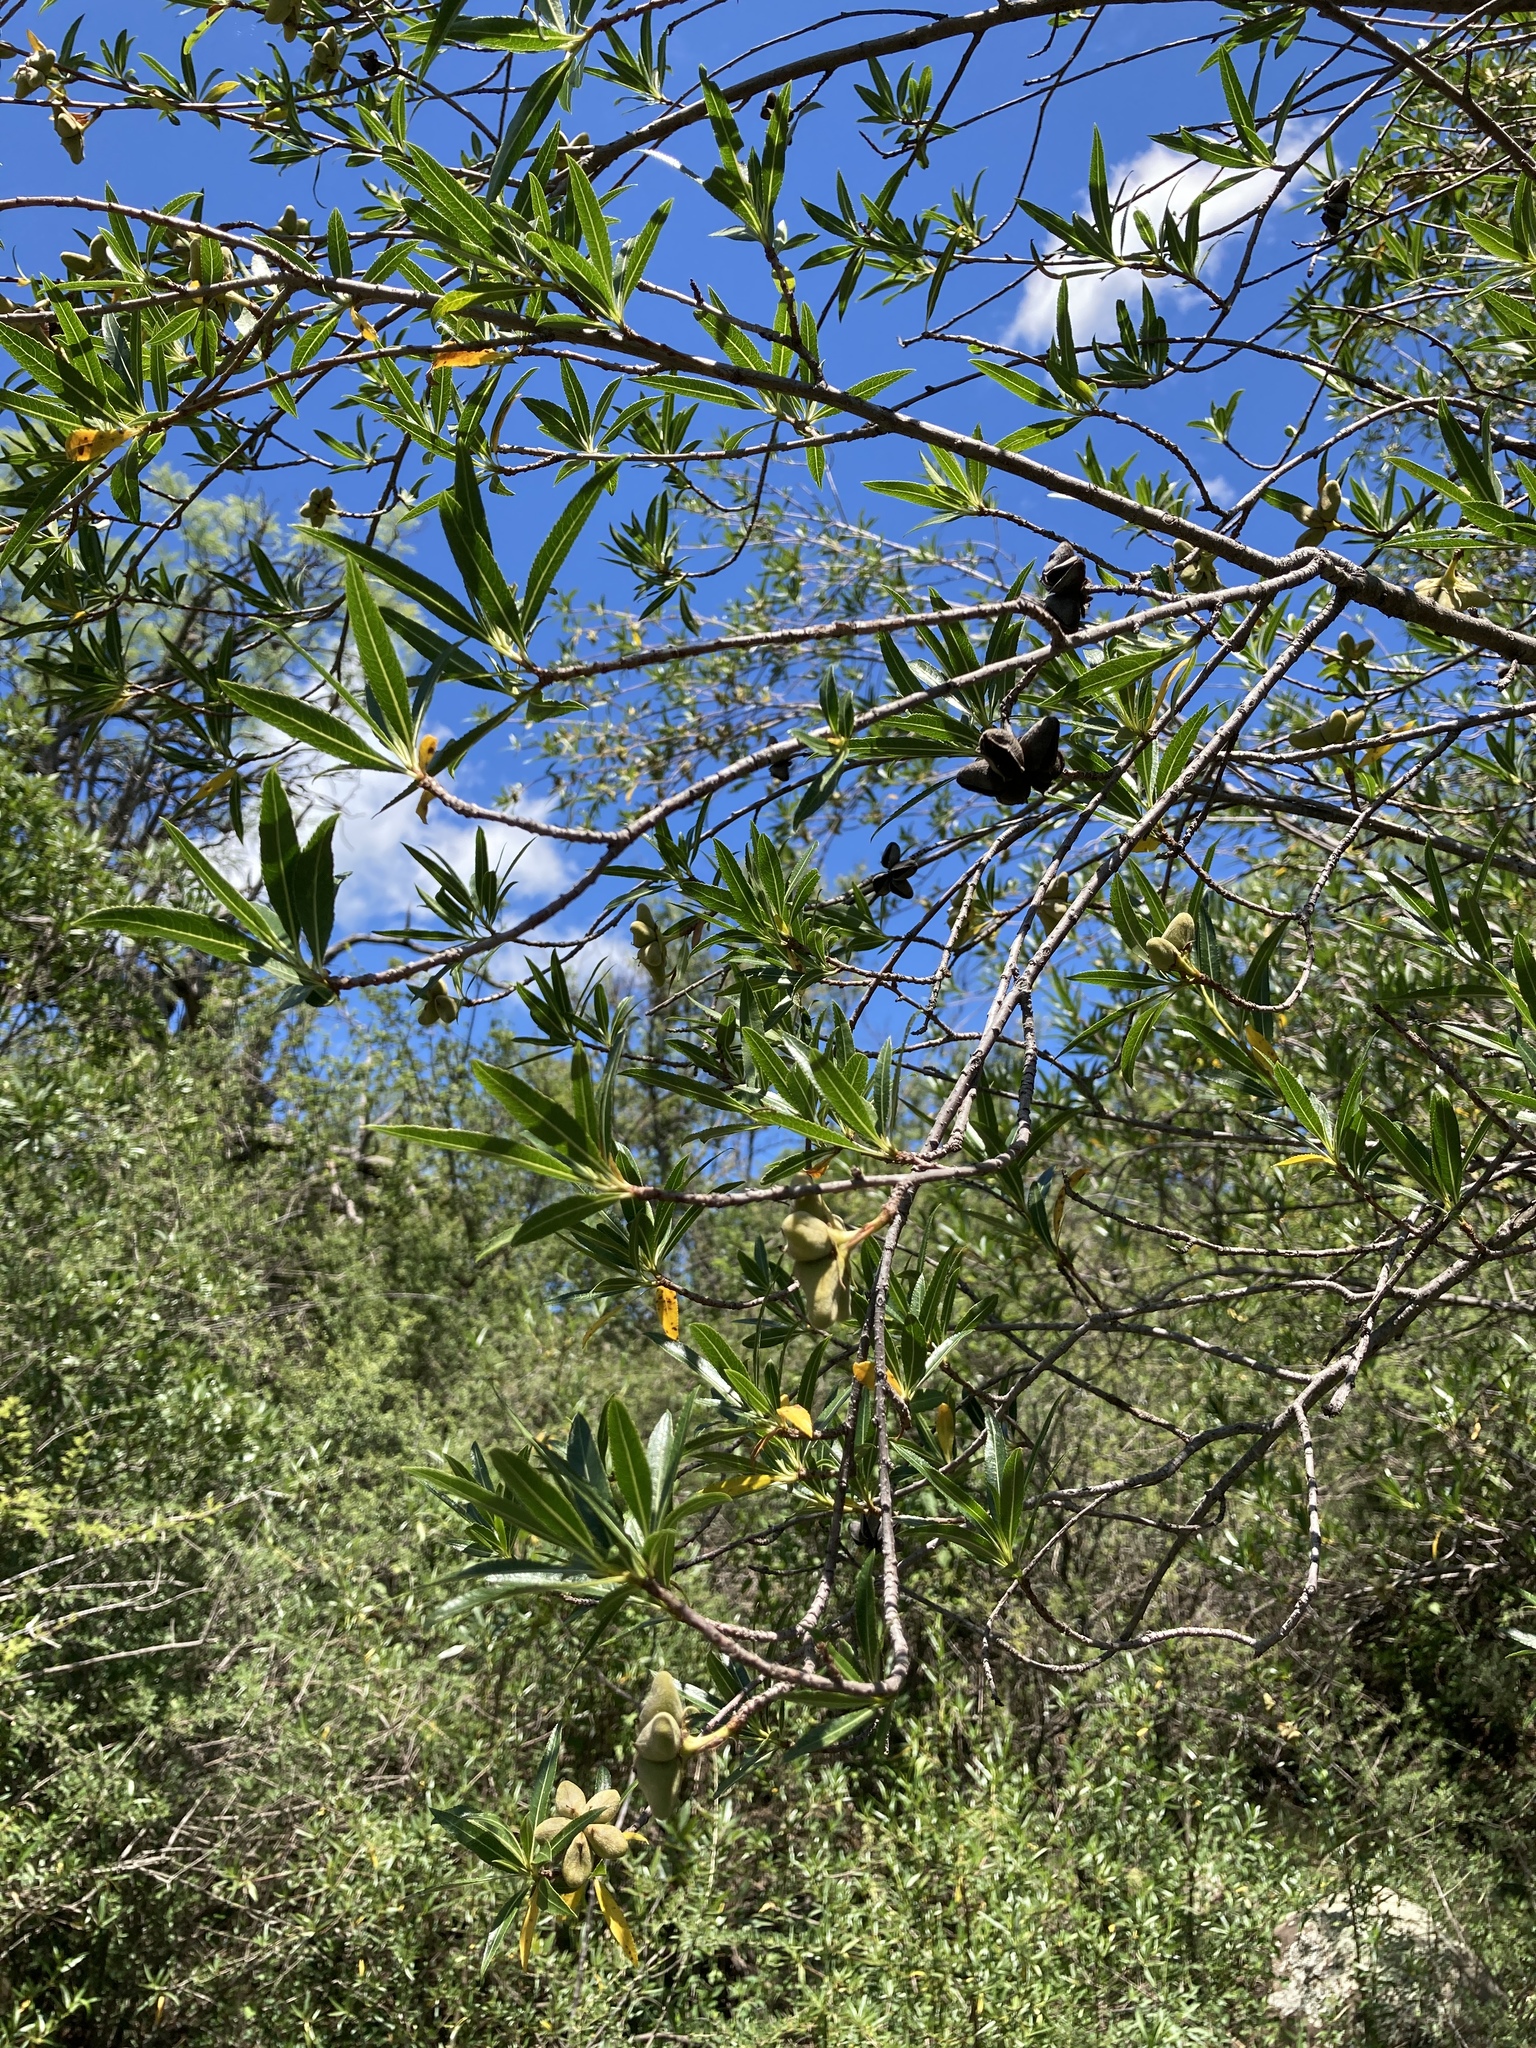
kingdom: Plantae
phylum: Tracheophyta
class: Magnoliopsida
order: Rosales
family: Rosaceae
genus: Kageneckia
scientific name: Kageneckia lanceolata
